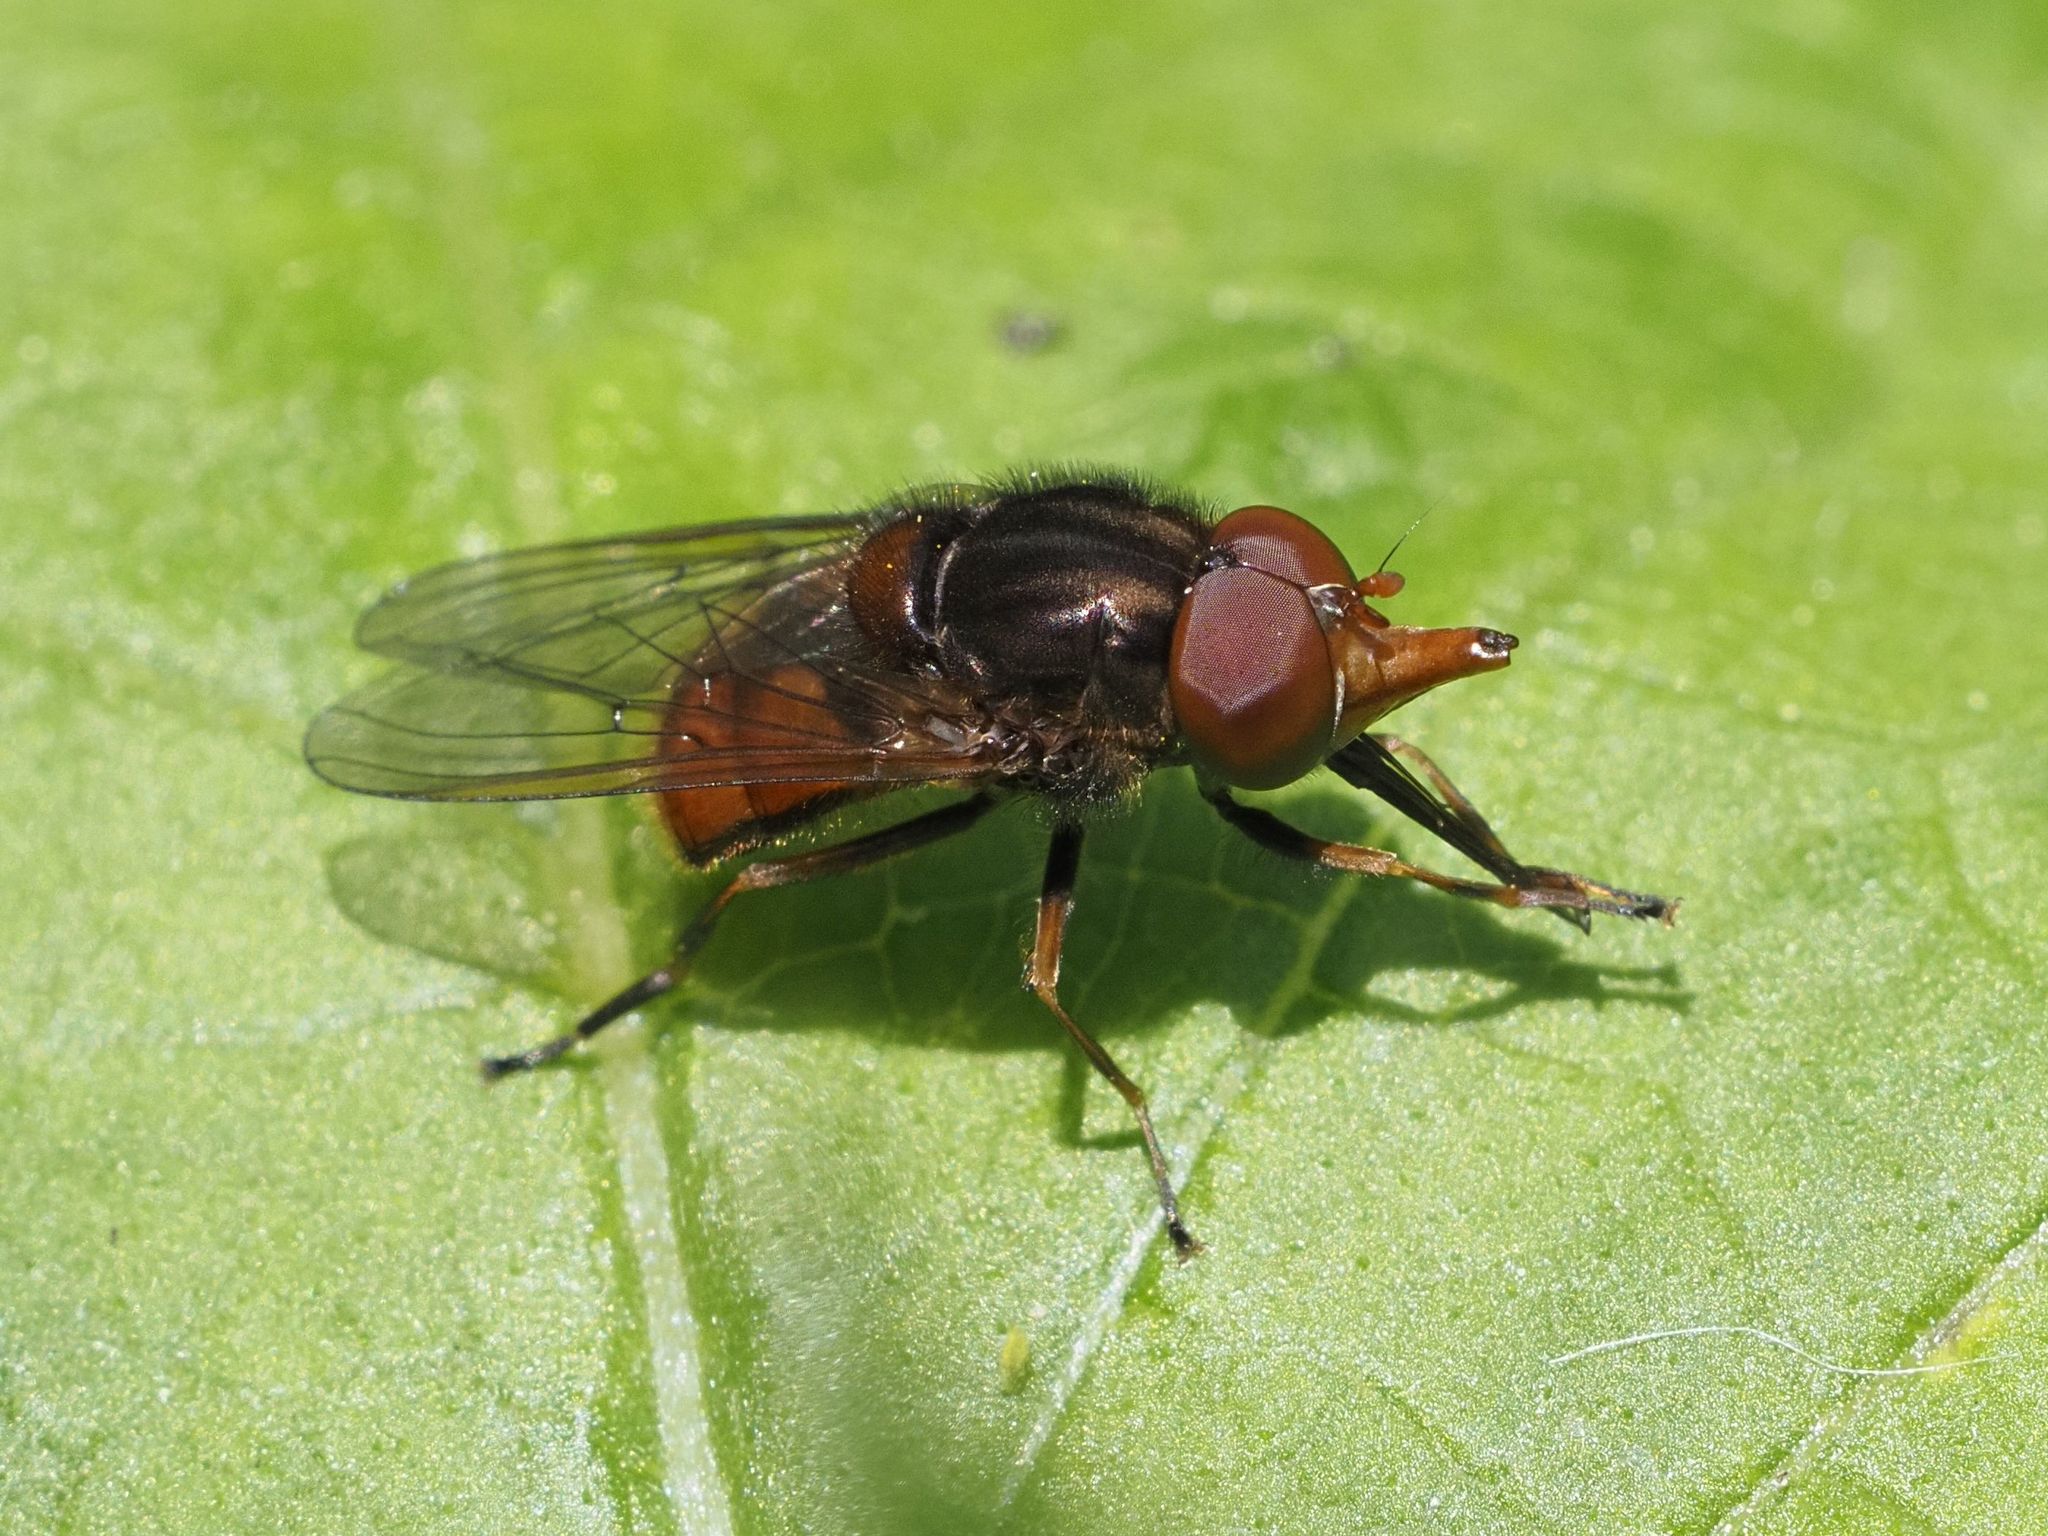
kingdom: Animalia
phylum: Arthropoda
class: Insecta
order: Diptera
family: Syrphidae
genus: Rhingia
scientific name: Rhingia campestris
